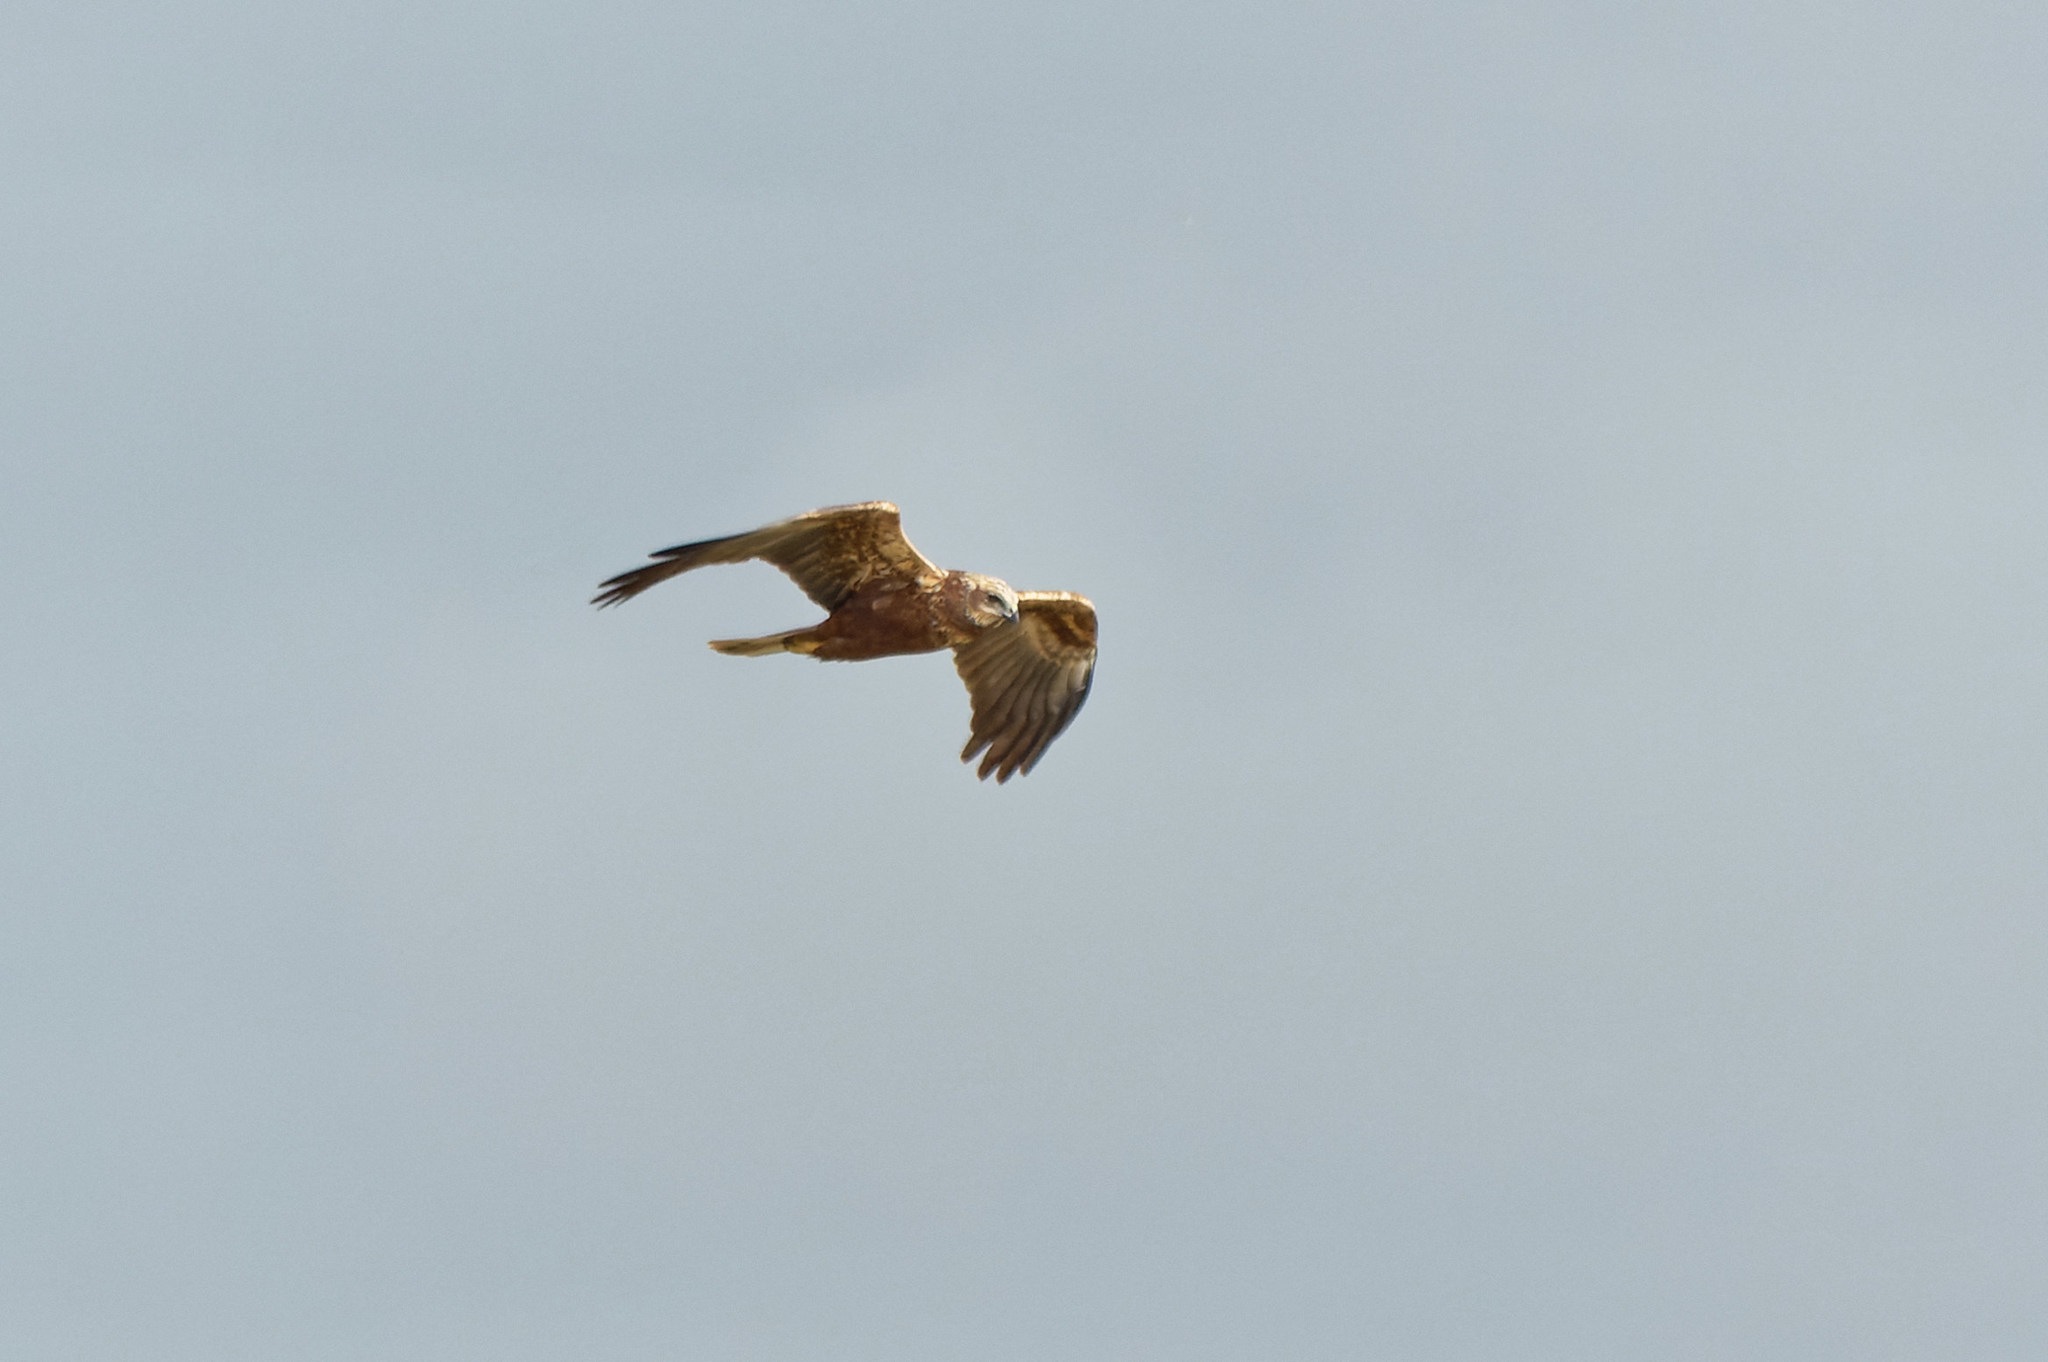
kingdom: Animalia
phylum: Chordata
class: Aves
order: Accipitriformes
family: Accipitridae
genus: Circus
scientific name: Circus aeruginosus
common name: Western marsh harrier
